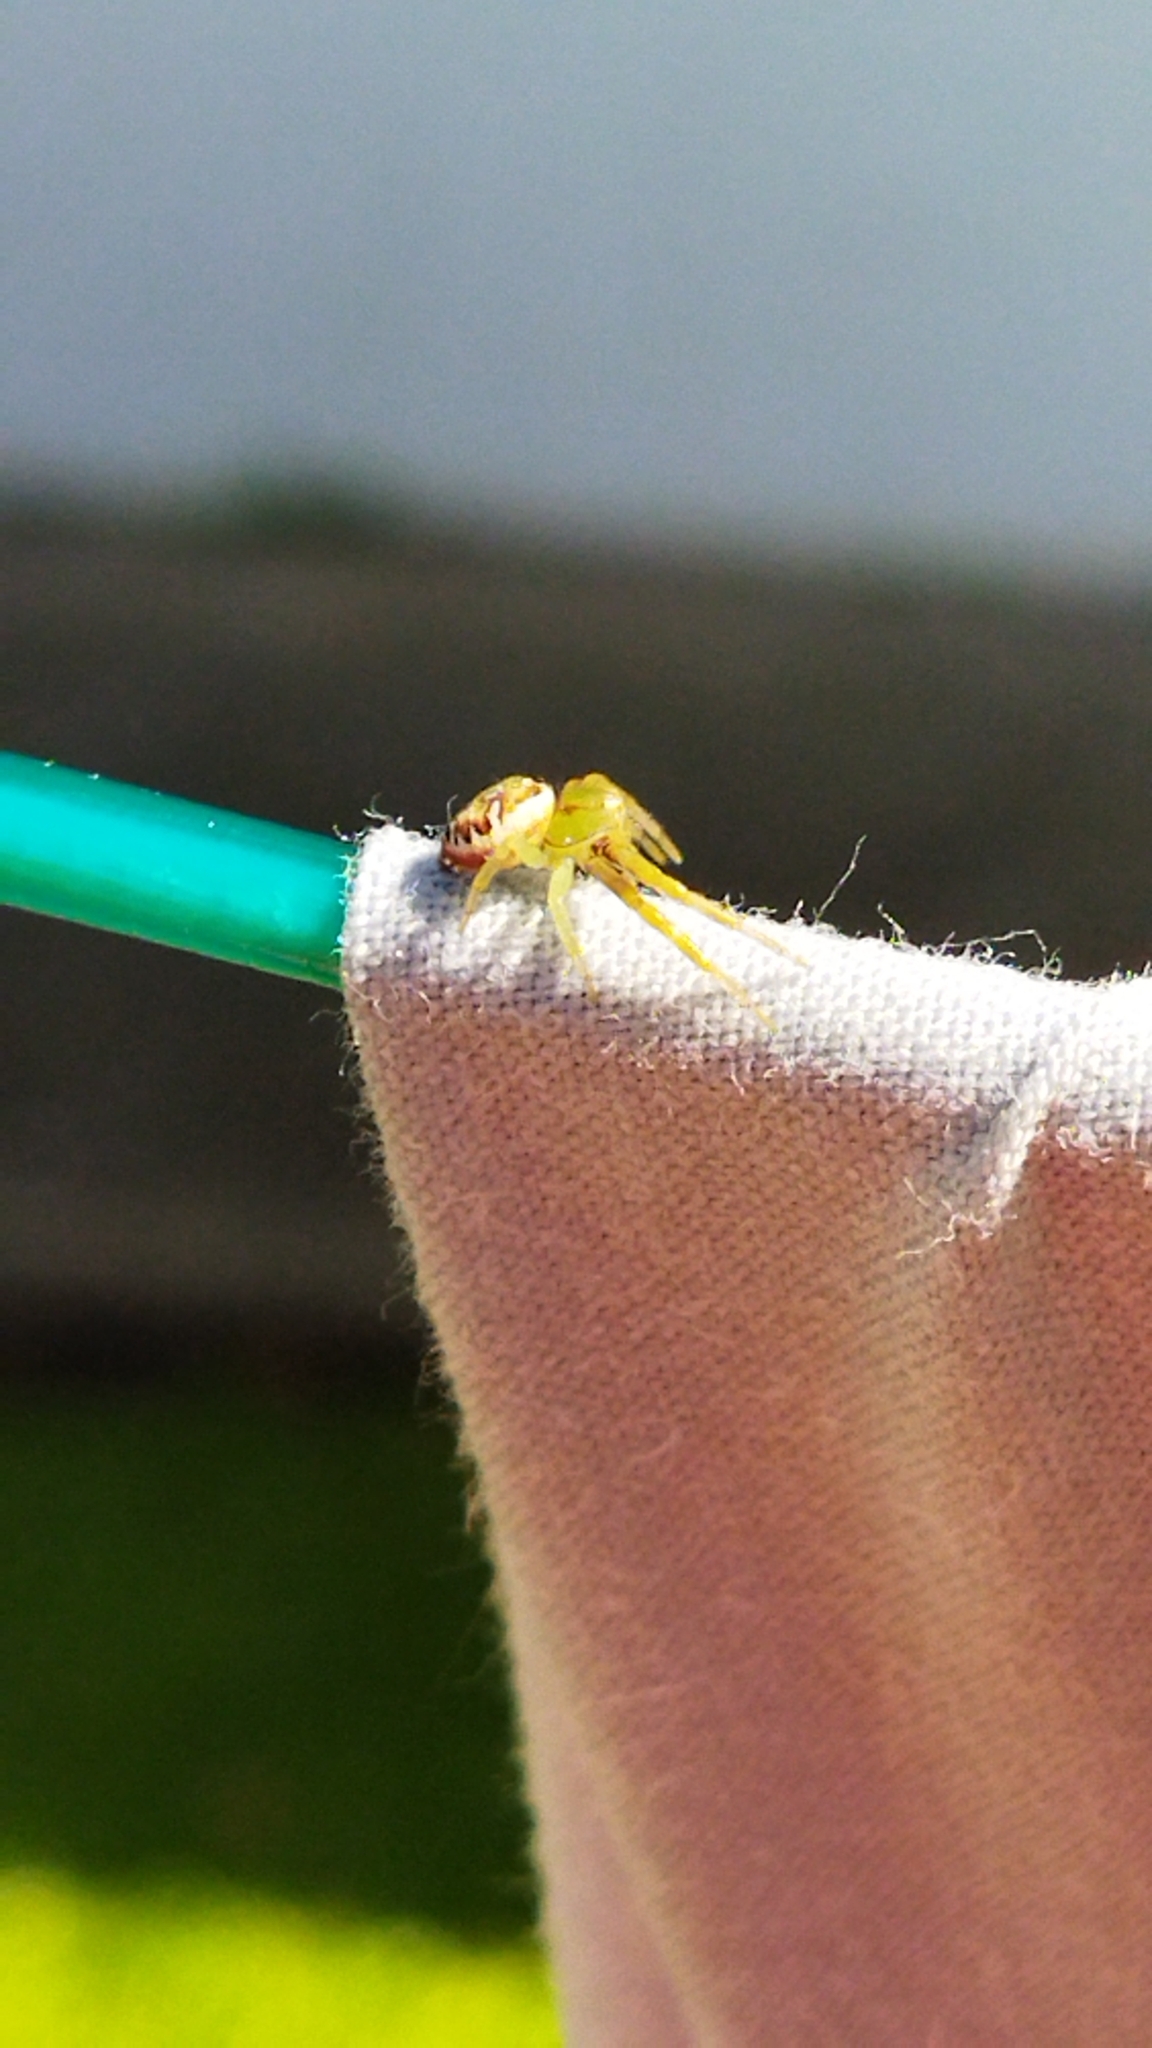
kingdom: Animalia
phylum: Arthropoda
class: Arachnida
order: Araneae
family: Thomisidae
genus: Synema
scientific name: Synema imitatrix
